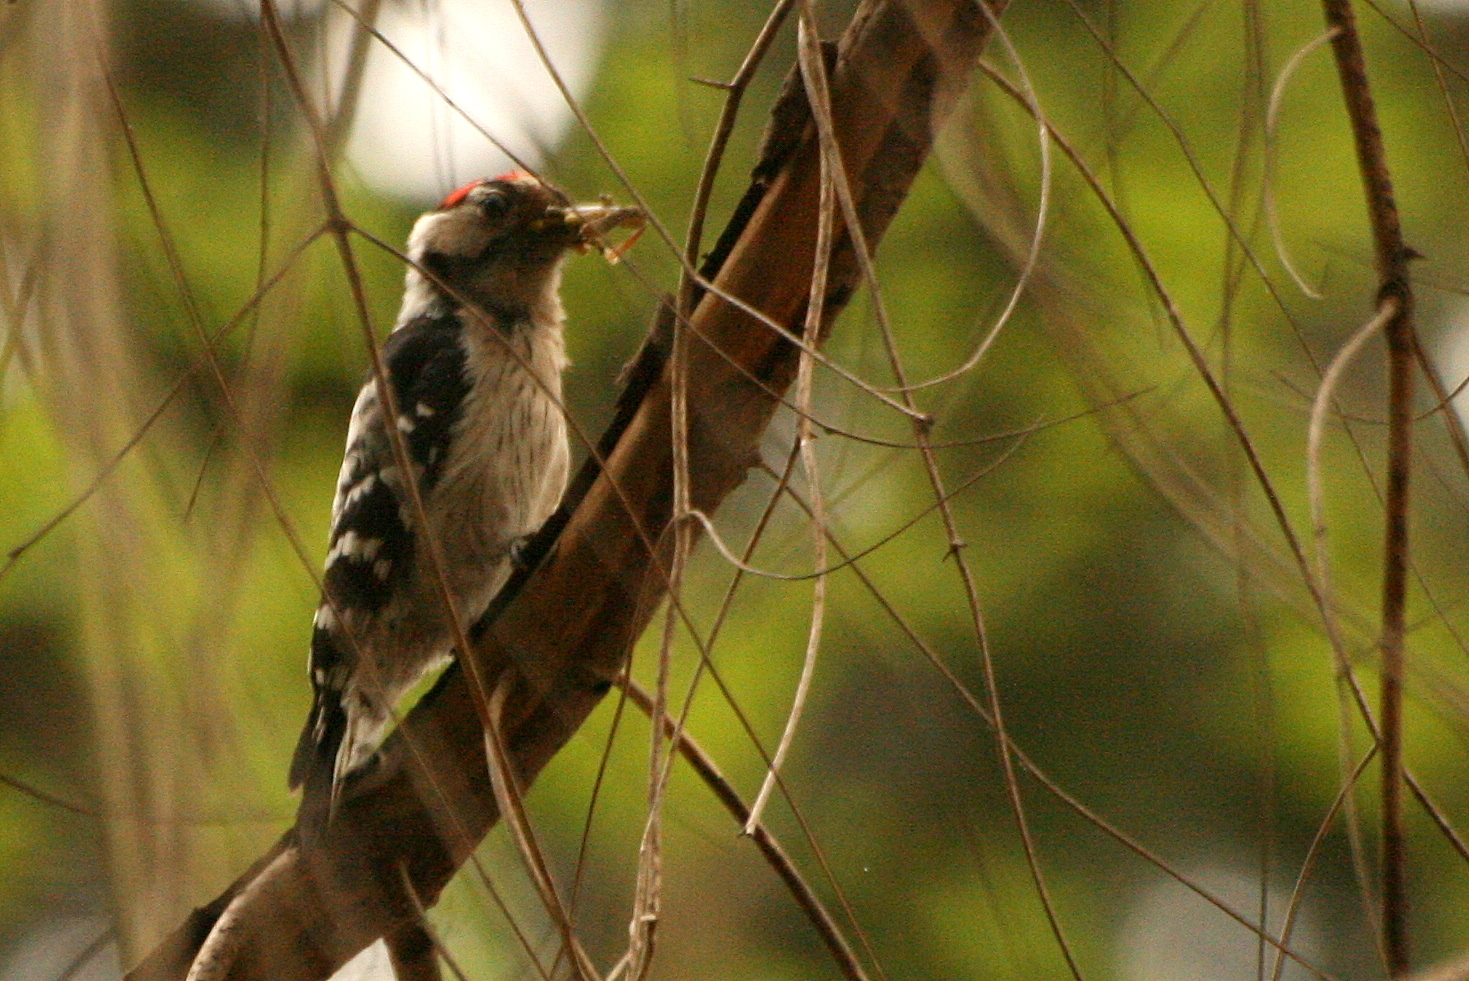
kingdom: Animalia
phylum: Chordata
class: Aves
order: Piciformes
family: Picidae
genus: Dryobates
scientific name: Dryobates minor
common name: Lesser spotted woodpecker
